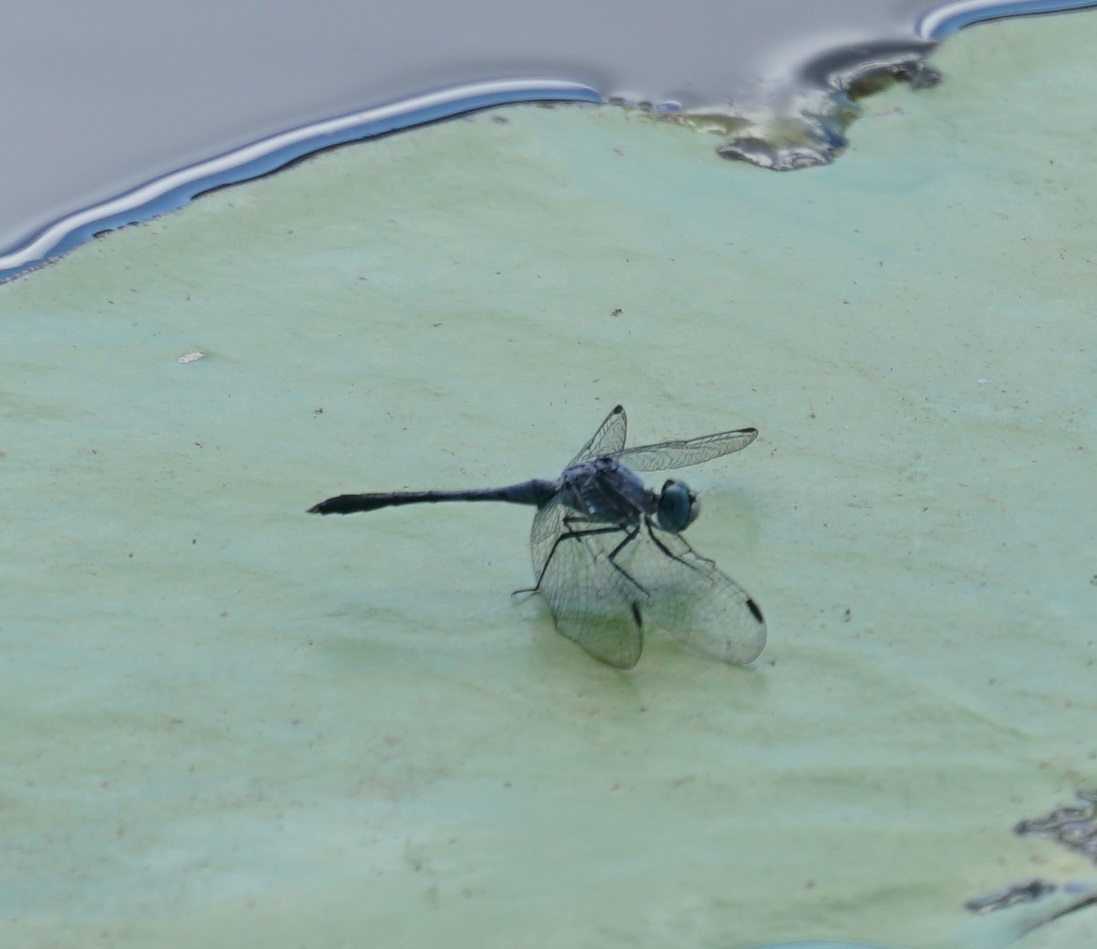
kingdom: Animalia
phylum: Arthropoda
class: Insecta
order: Odonata
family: Libellulidae
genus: Diplacodes
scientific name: Diplacodes trivialis
